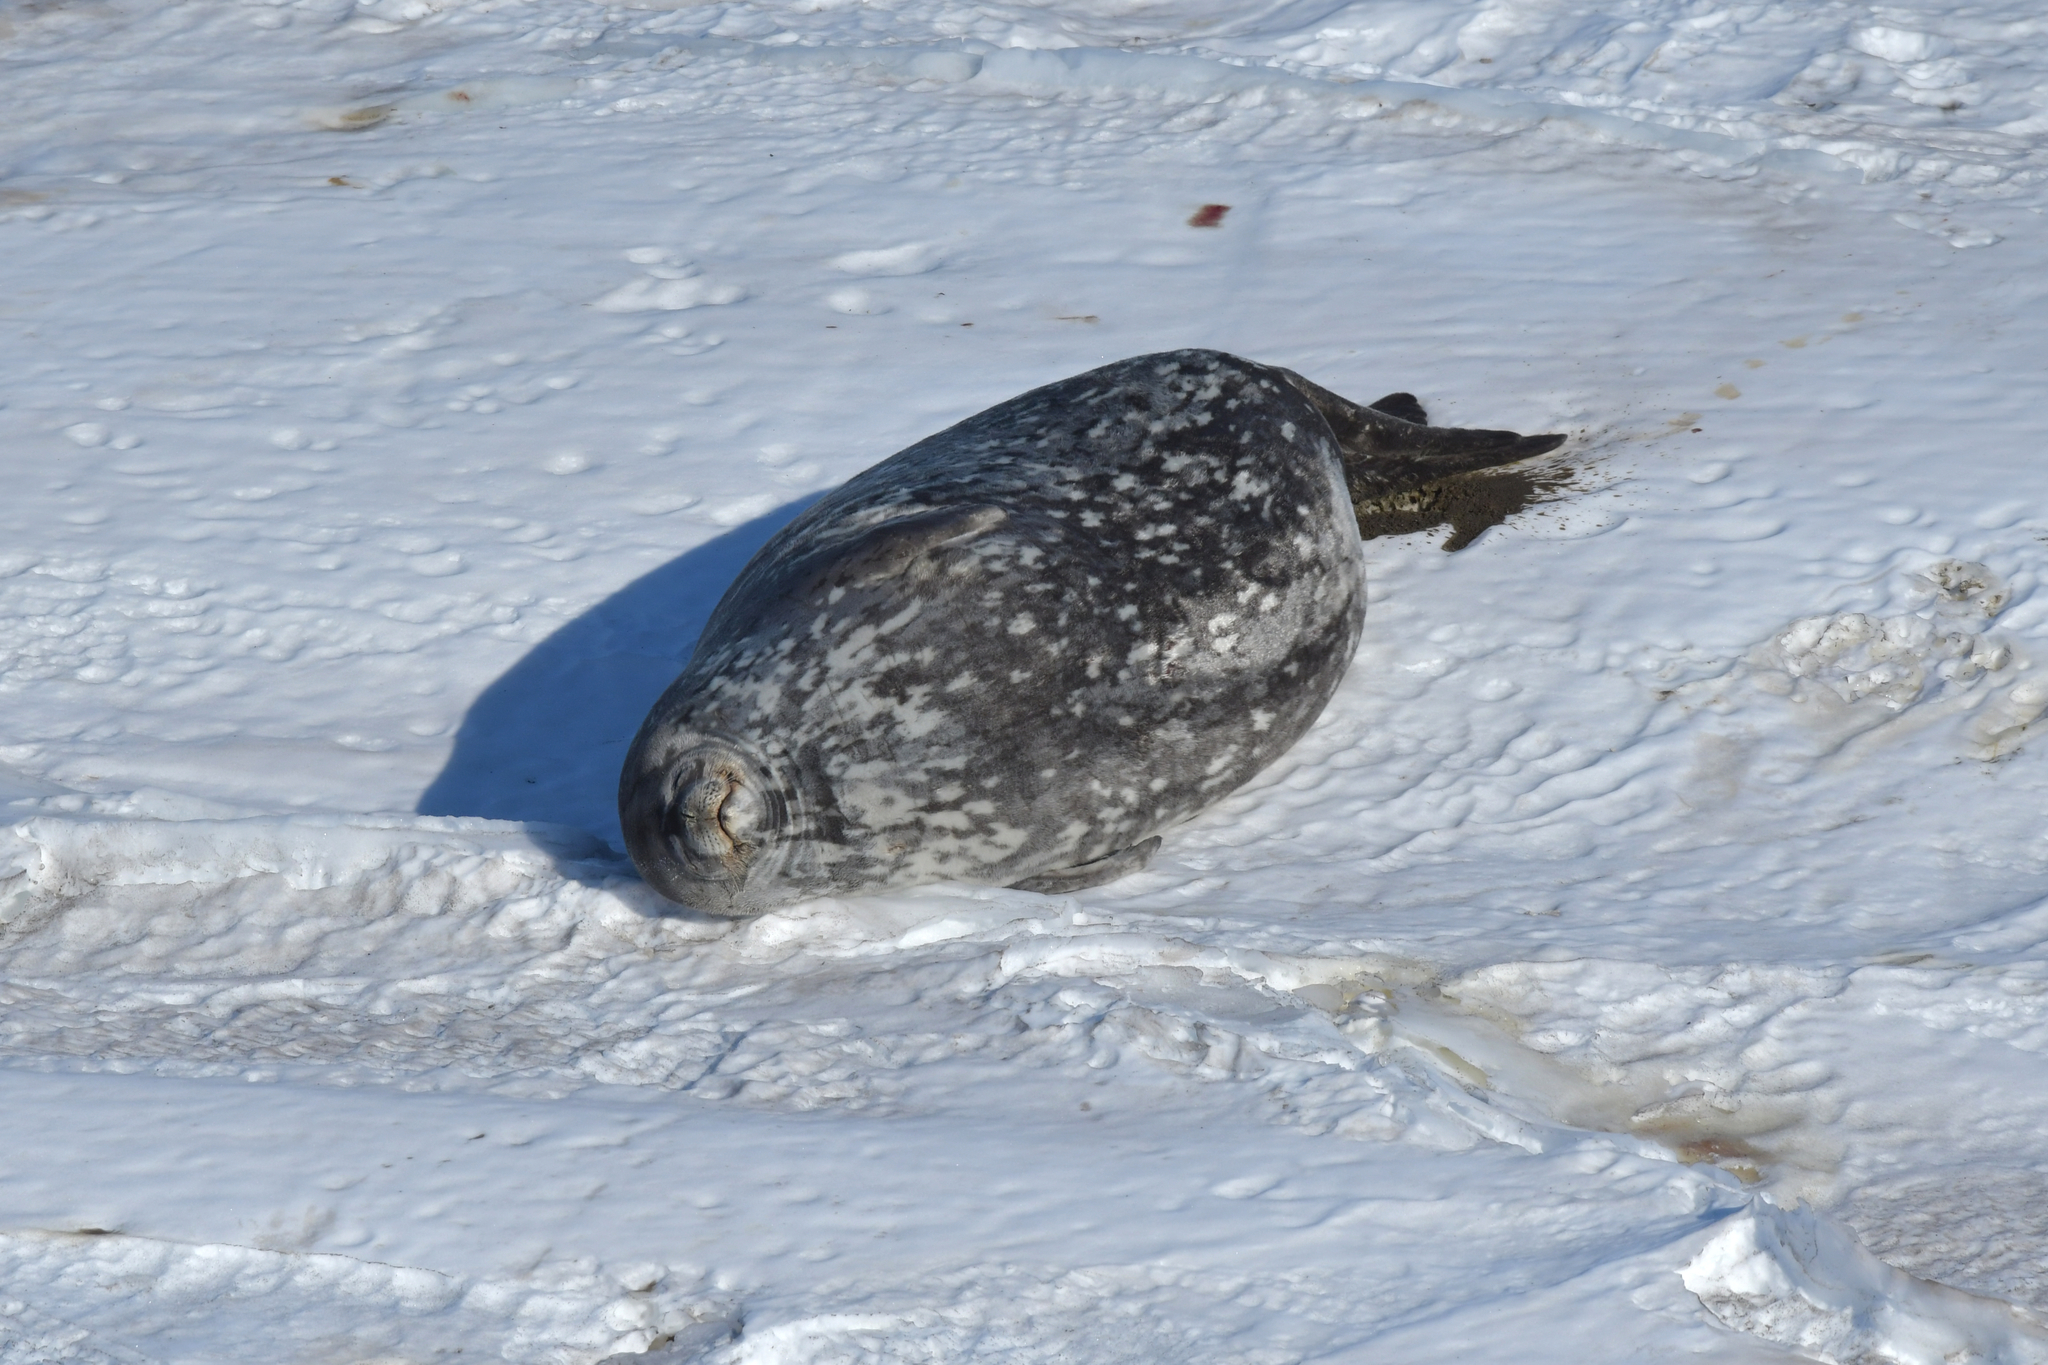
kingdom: Animalia
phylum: Chordata
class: Mammalia
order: Carnivora
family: Phocidae
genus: Leptonychotes
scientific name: Leptonychotes weddellii
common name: Weddell seal
